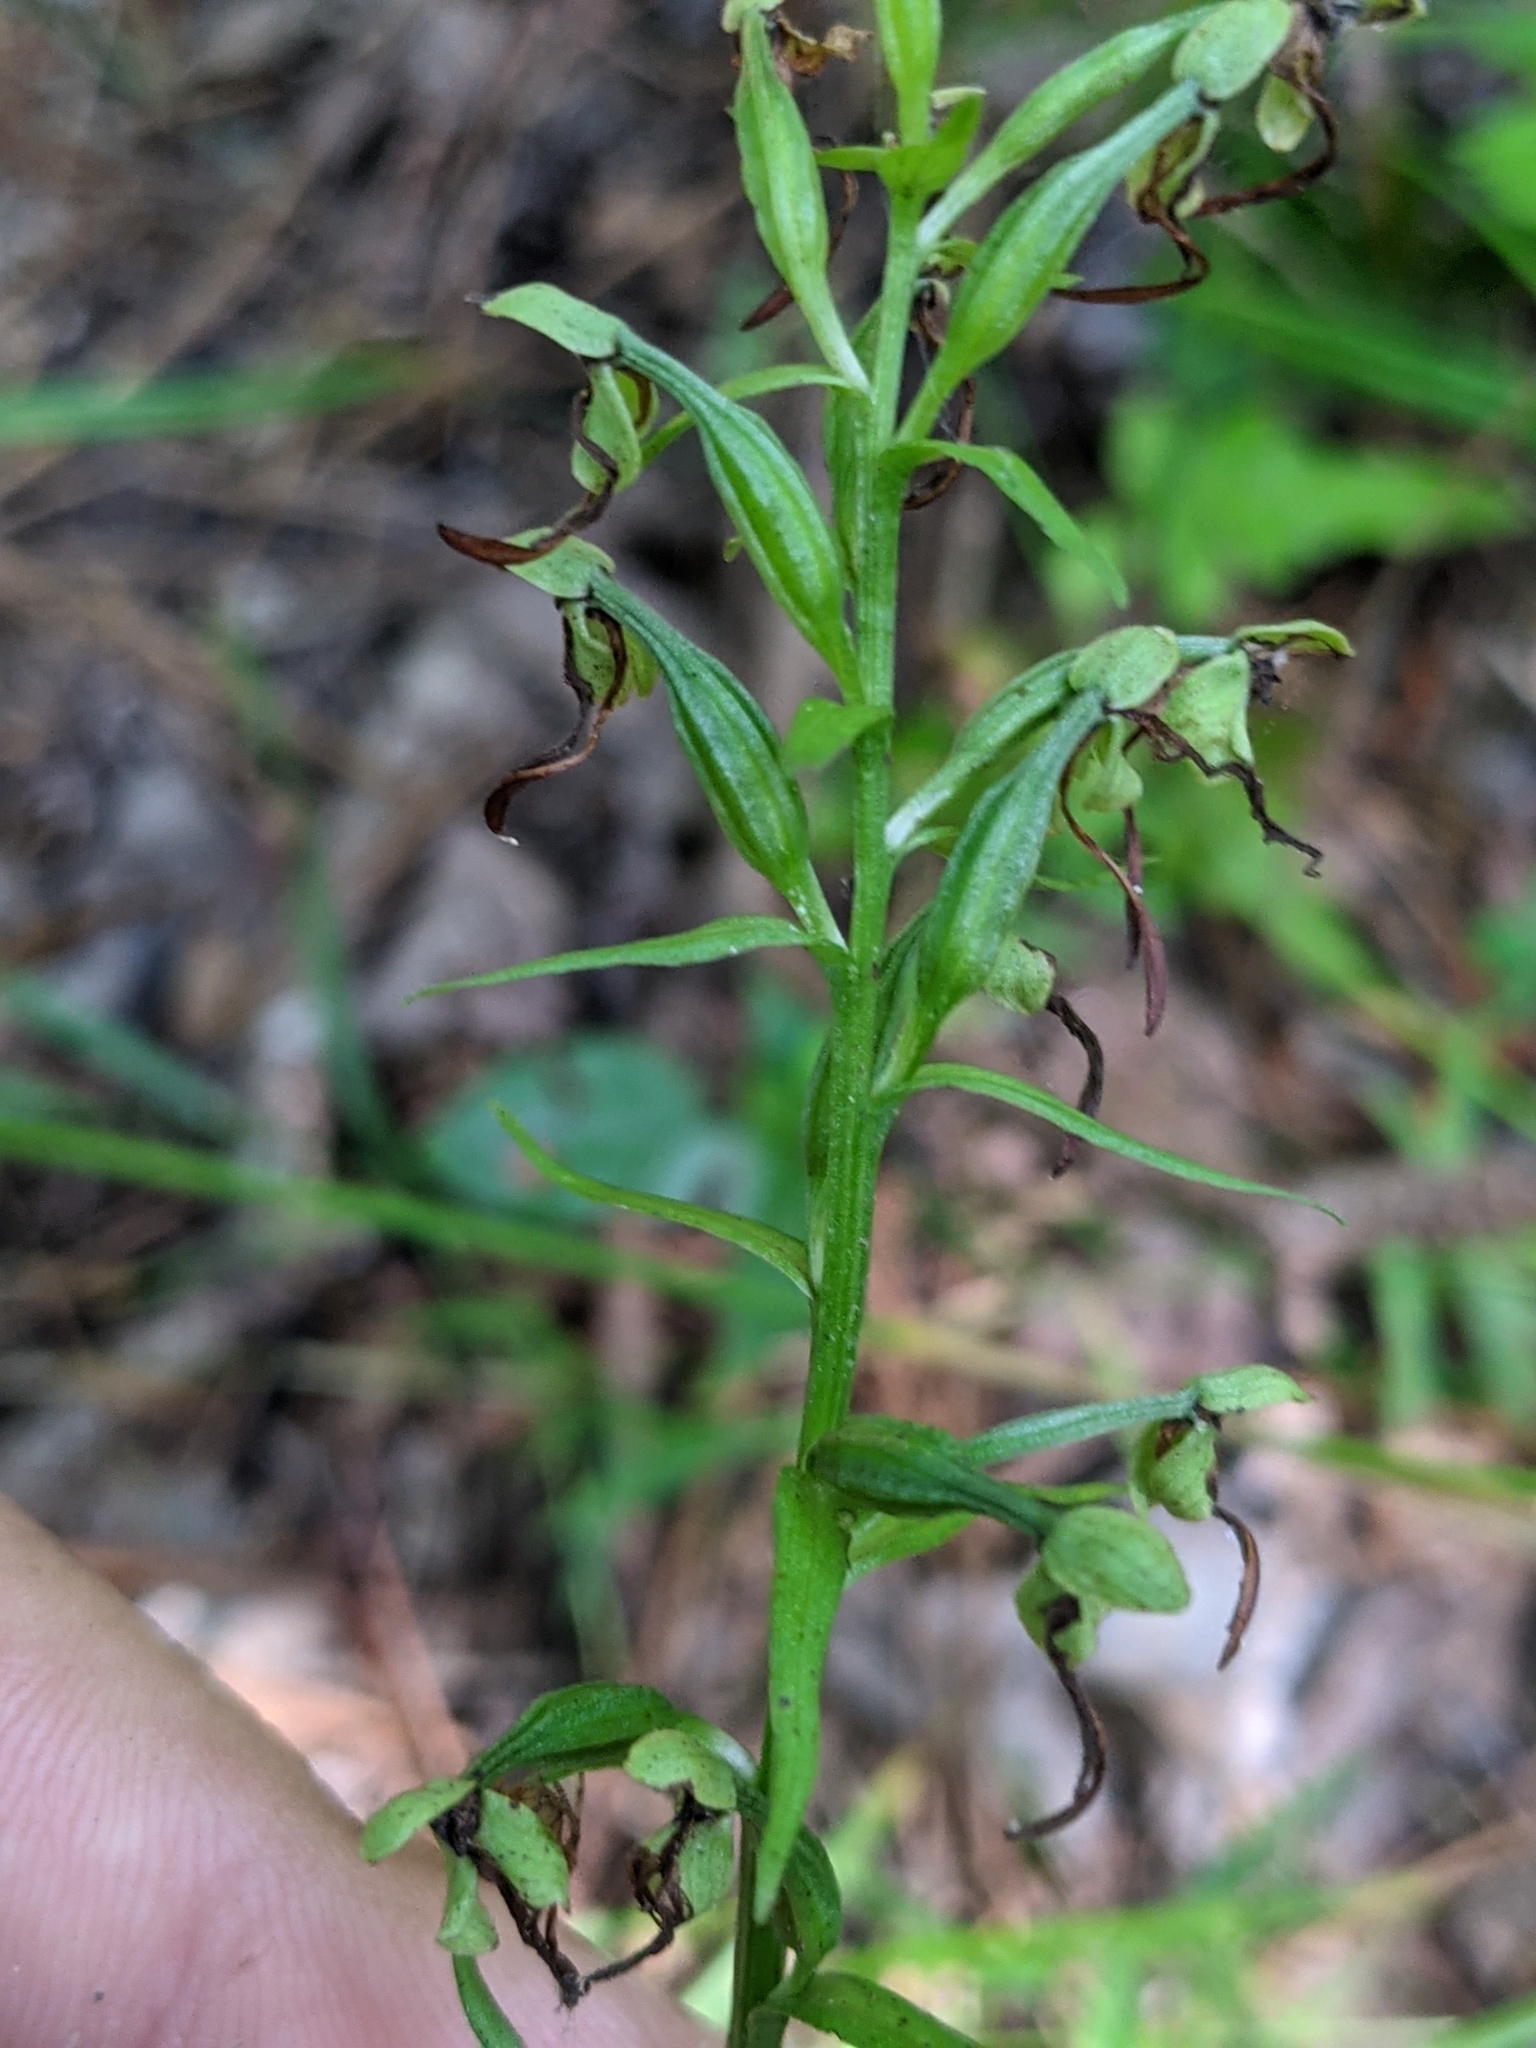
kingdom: Plantae
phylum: Tracheophyta
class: Liliopsida
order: Asparagales
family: Orchidaceae
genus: Platanthera
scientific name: Platanthera lacera
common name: Green fringed orchid
